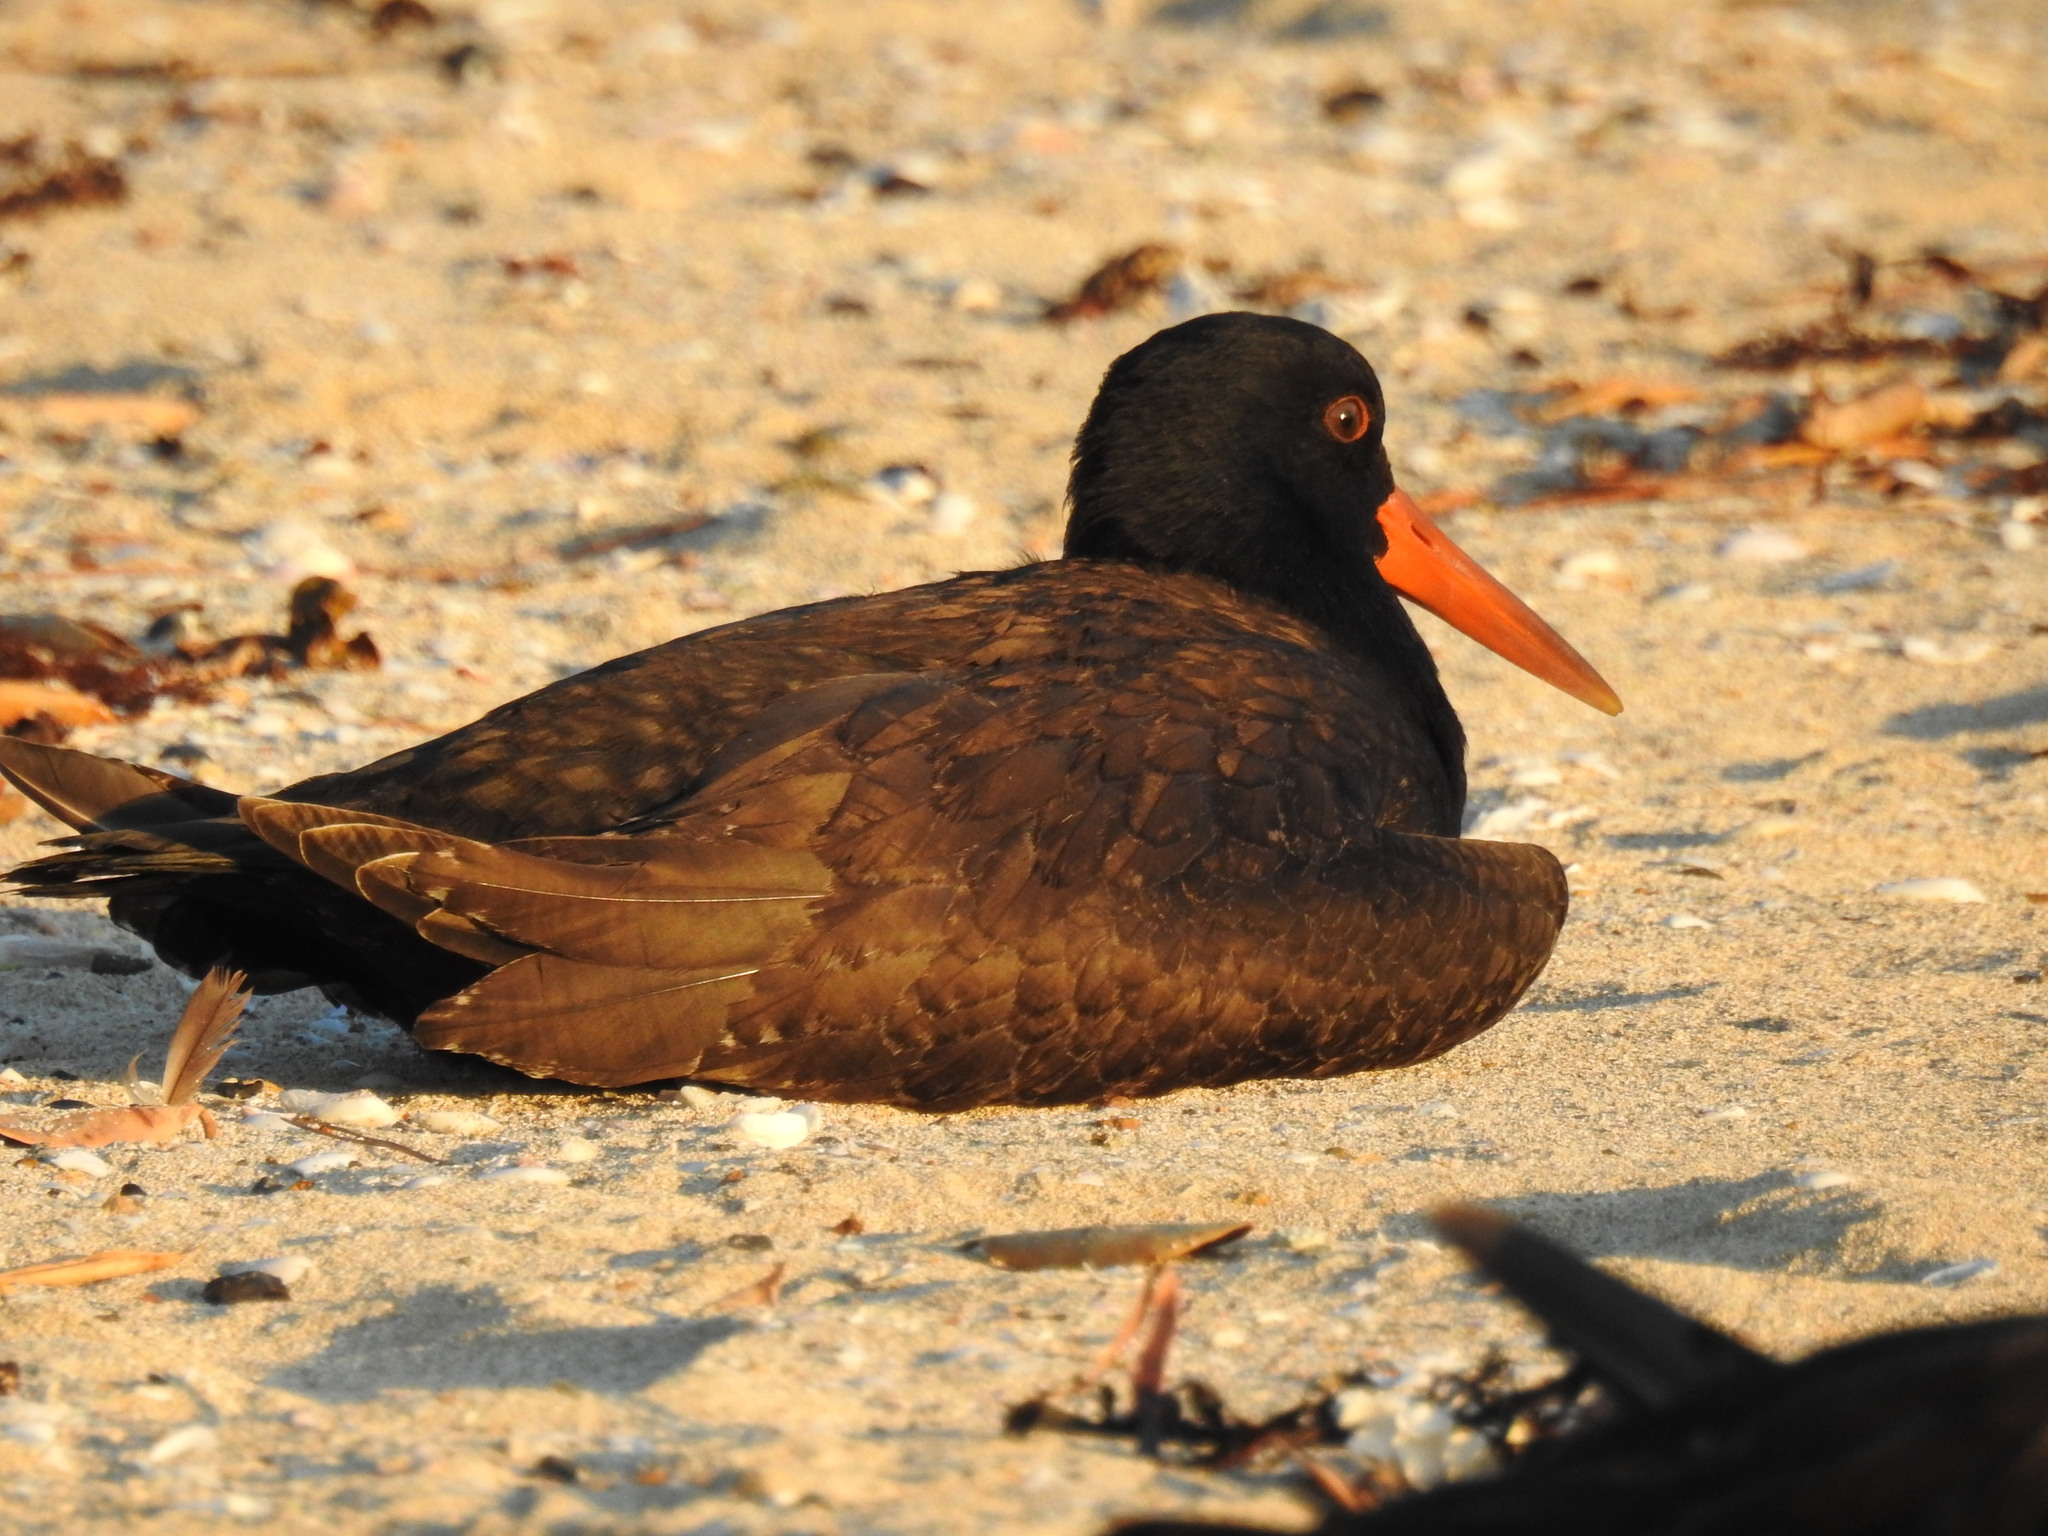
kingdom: Animalia
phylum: Chordata
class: Aves
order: Charadriiformes
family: Haematopodidae
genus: Haematopus
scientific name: Haematopus unicolor
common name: Variable oystercatcher
